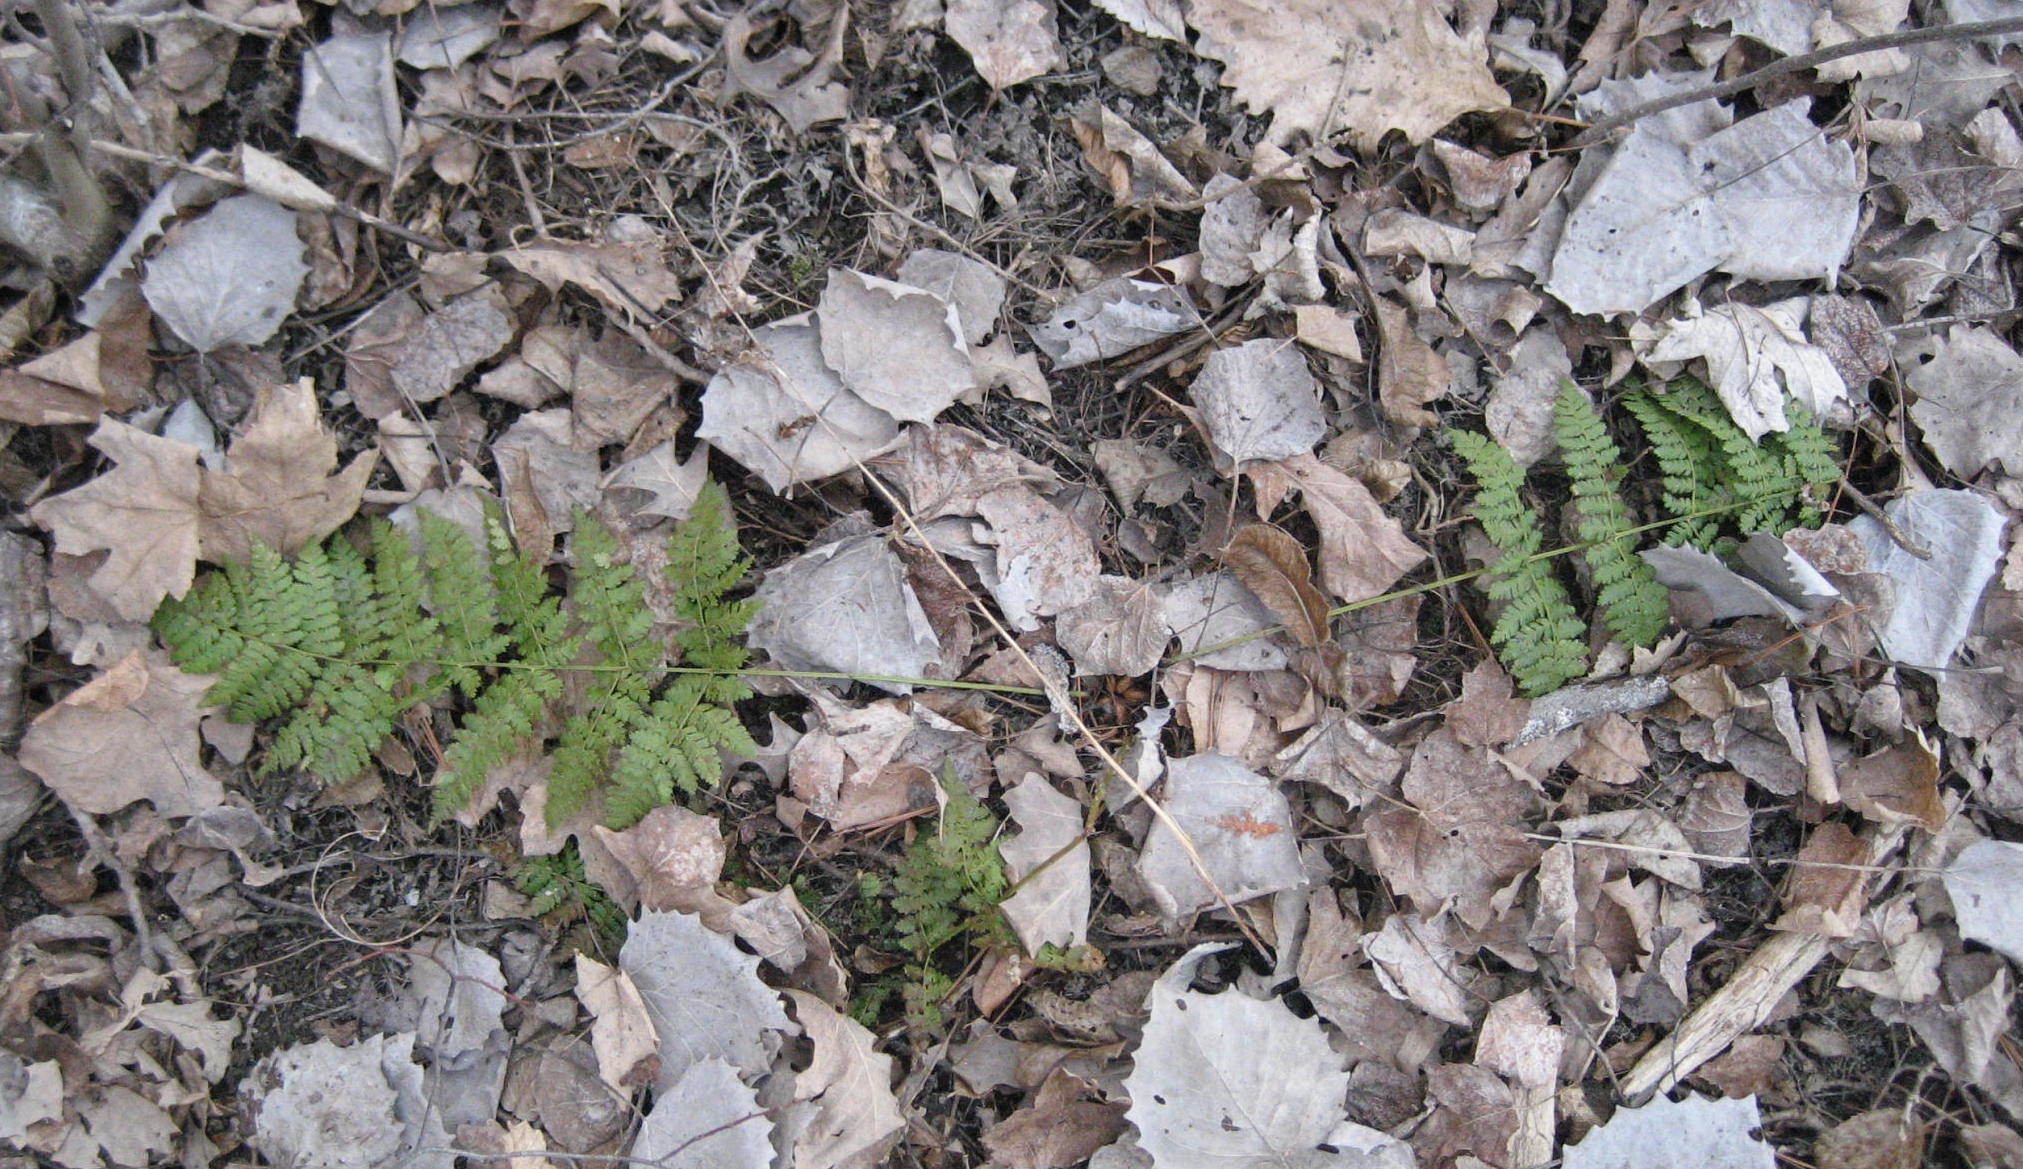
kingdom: Plantae
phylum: Tracheophyta
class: Polypodiopsida
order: Polypodiales
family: Dryopteridaceae
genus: Dryopteris
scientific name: Dryopteris intermedia
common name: Evergreen wood fern
